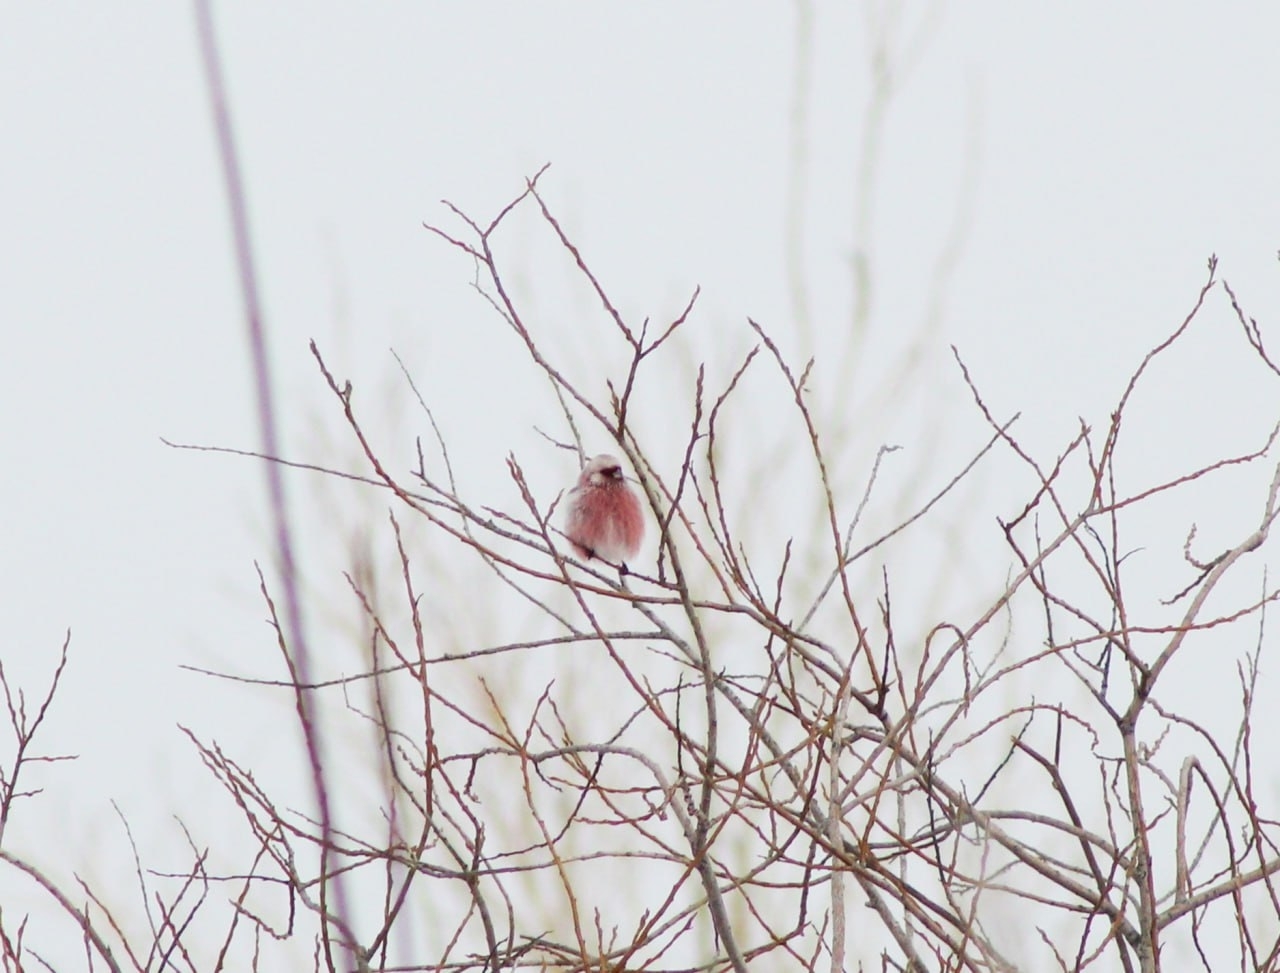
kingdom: Animalia
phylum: Chordata
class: Aves
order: Passeriformes
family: Fringillidae
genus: Carpodacus
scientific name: Carpodacus sibiricus
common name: Long-tailed rosefinch
